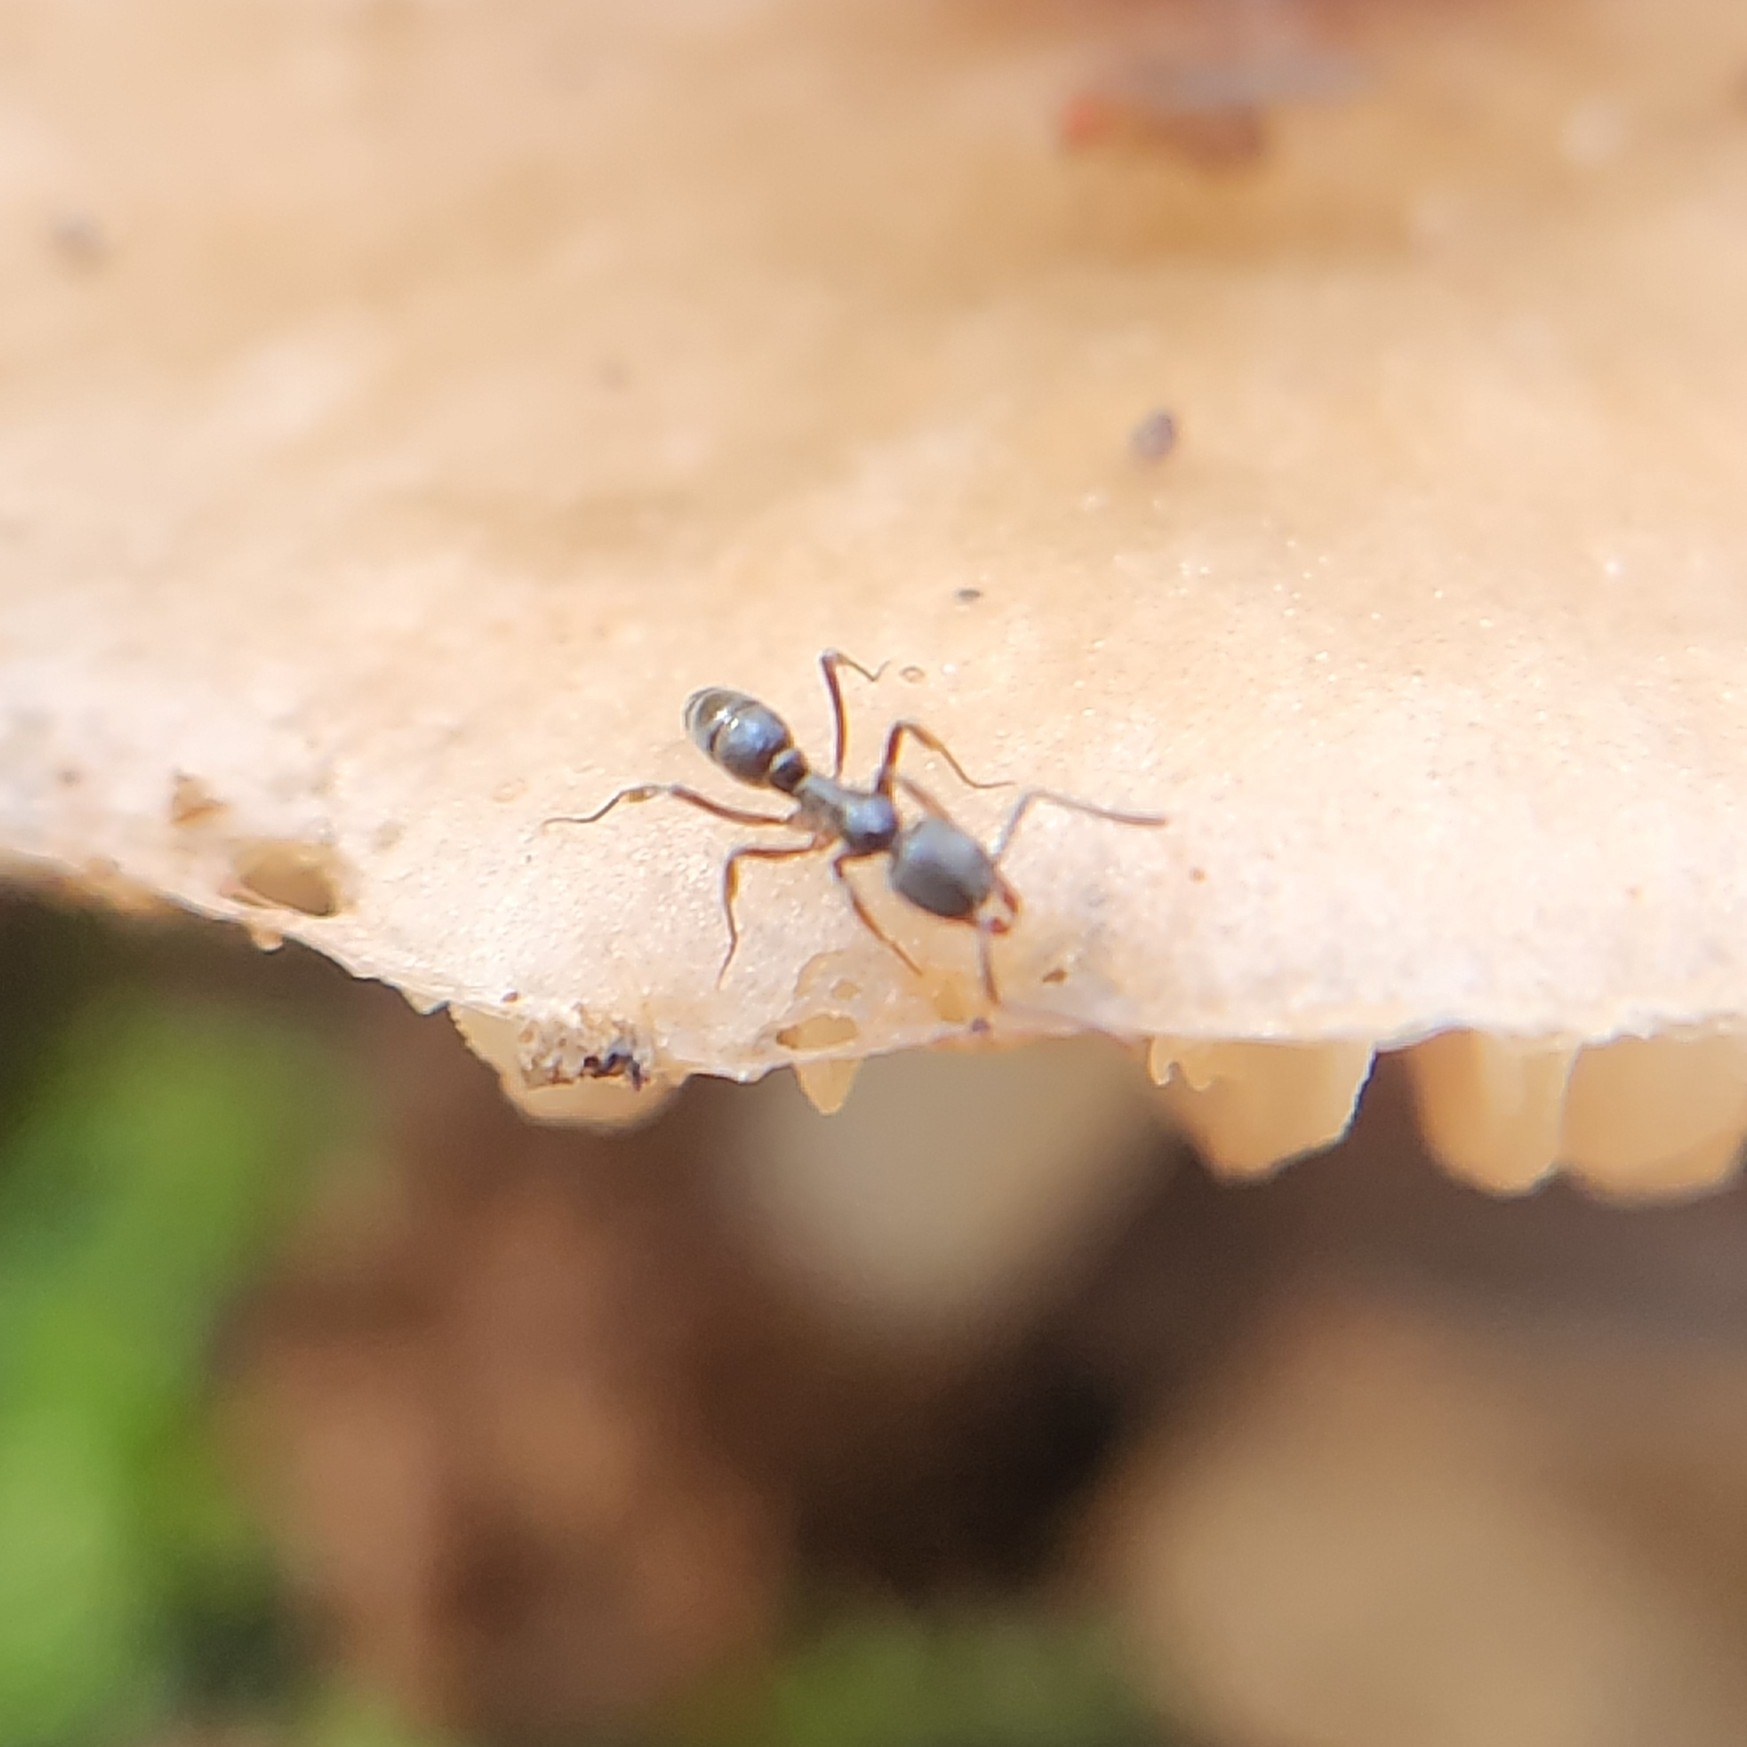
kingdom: Animalia
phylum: Arthropoda
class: Insecta
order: Hymenoptera
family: Formicidae
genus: Pachycondyla
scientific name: Pachycondyla chinensis
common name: Asian needle ant
